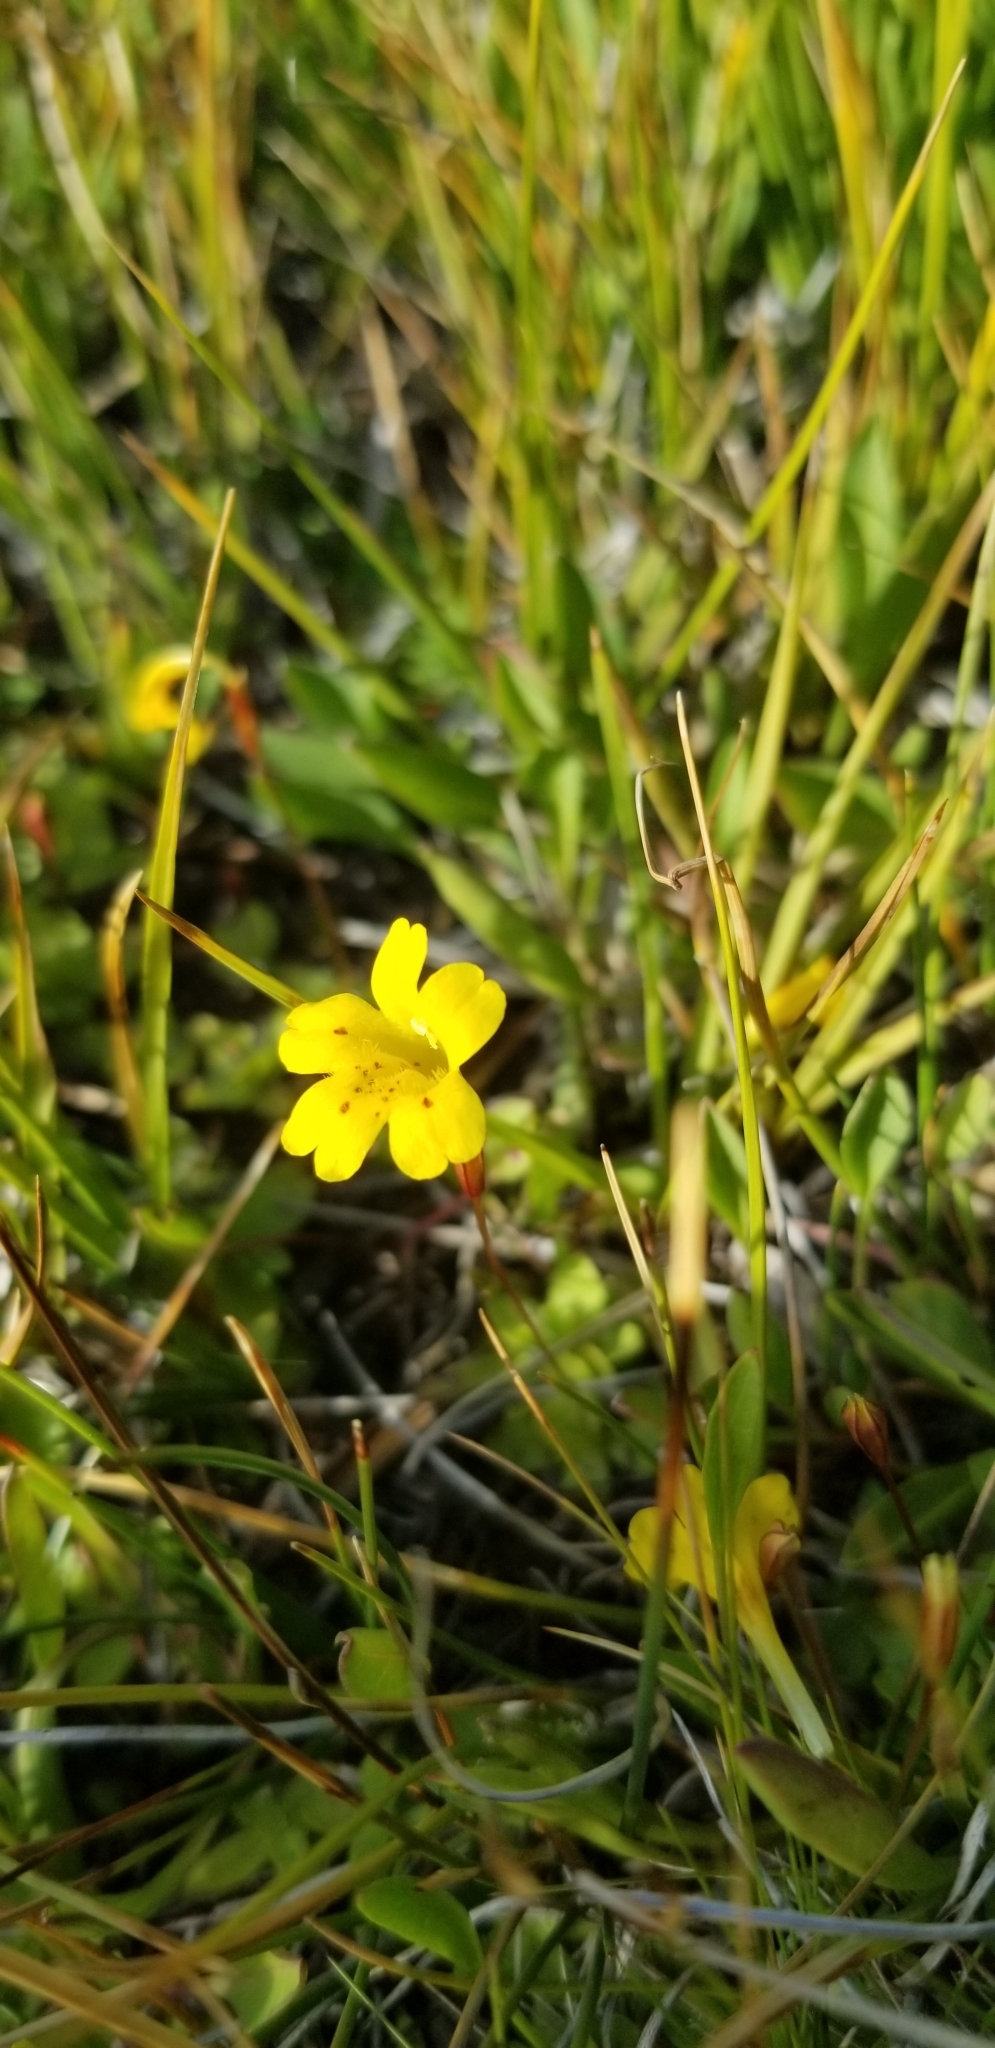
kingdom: Plantae
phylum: Tracheophyta
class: Magnoliopsida
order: Lamiales
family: Phrymaceae
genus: Erythranthe
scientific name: Erythranthe primuloides
